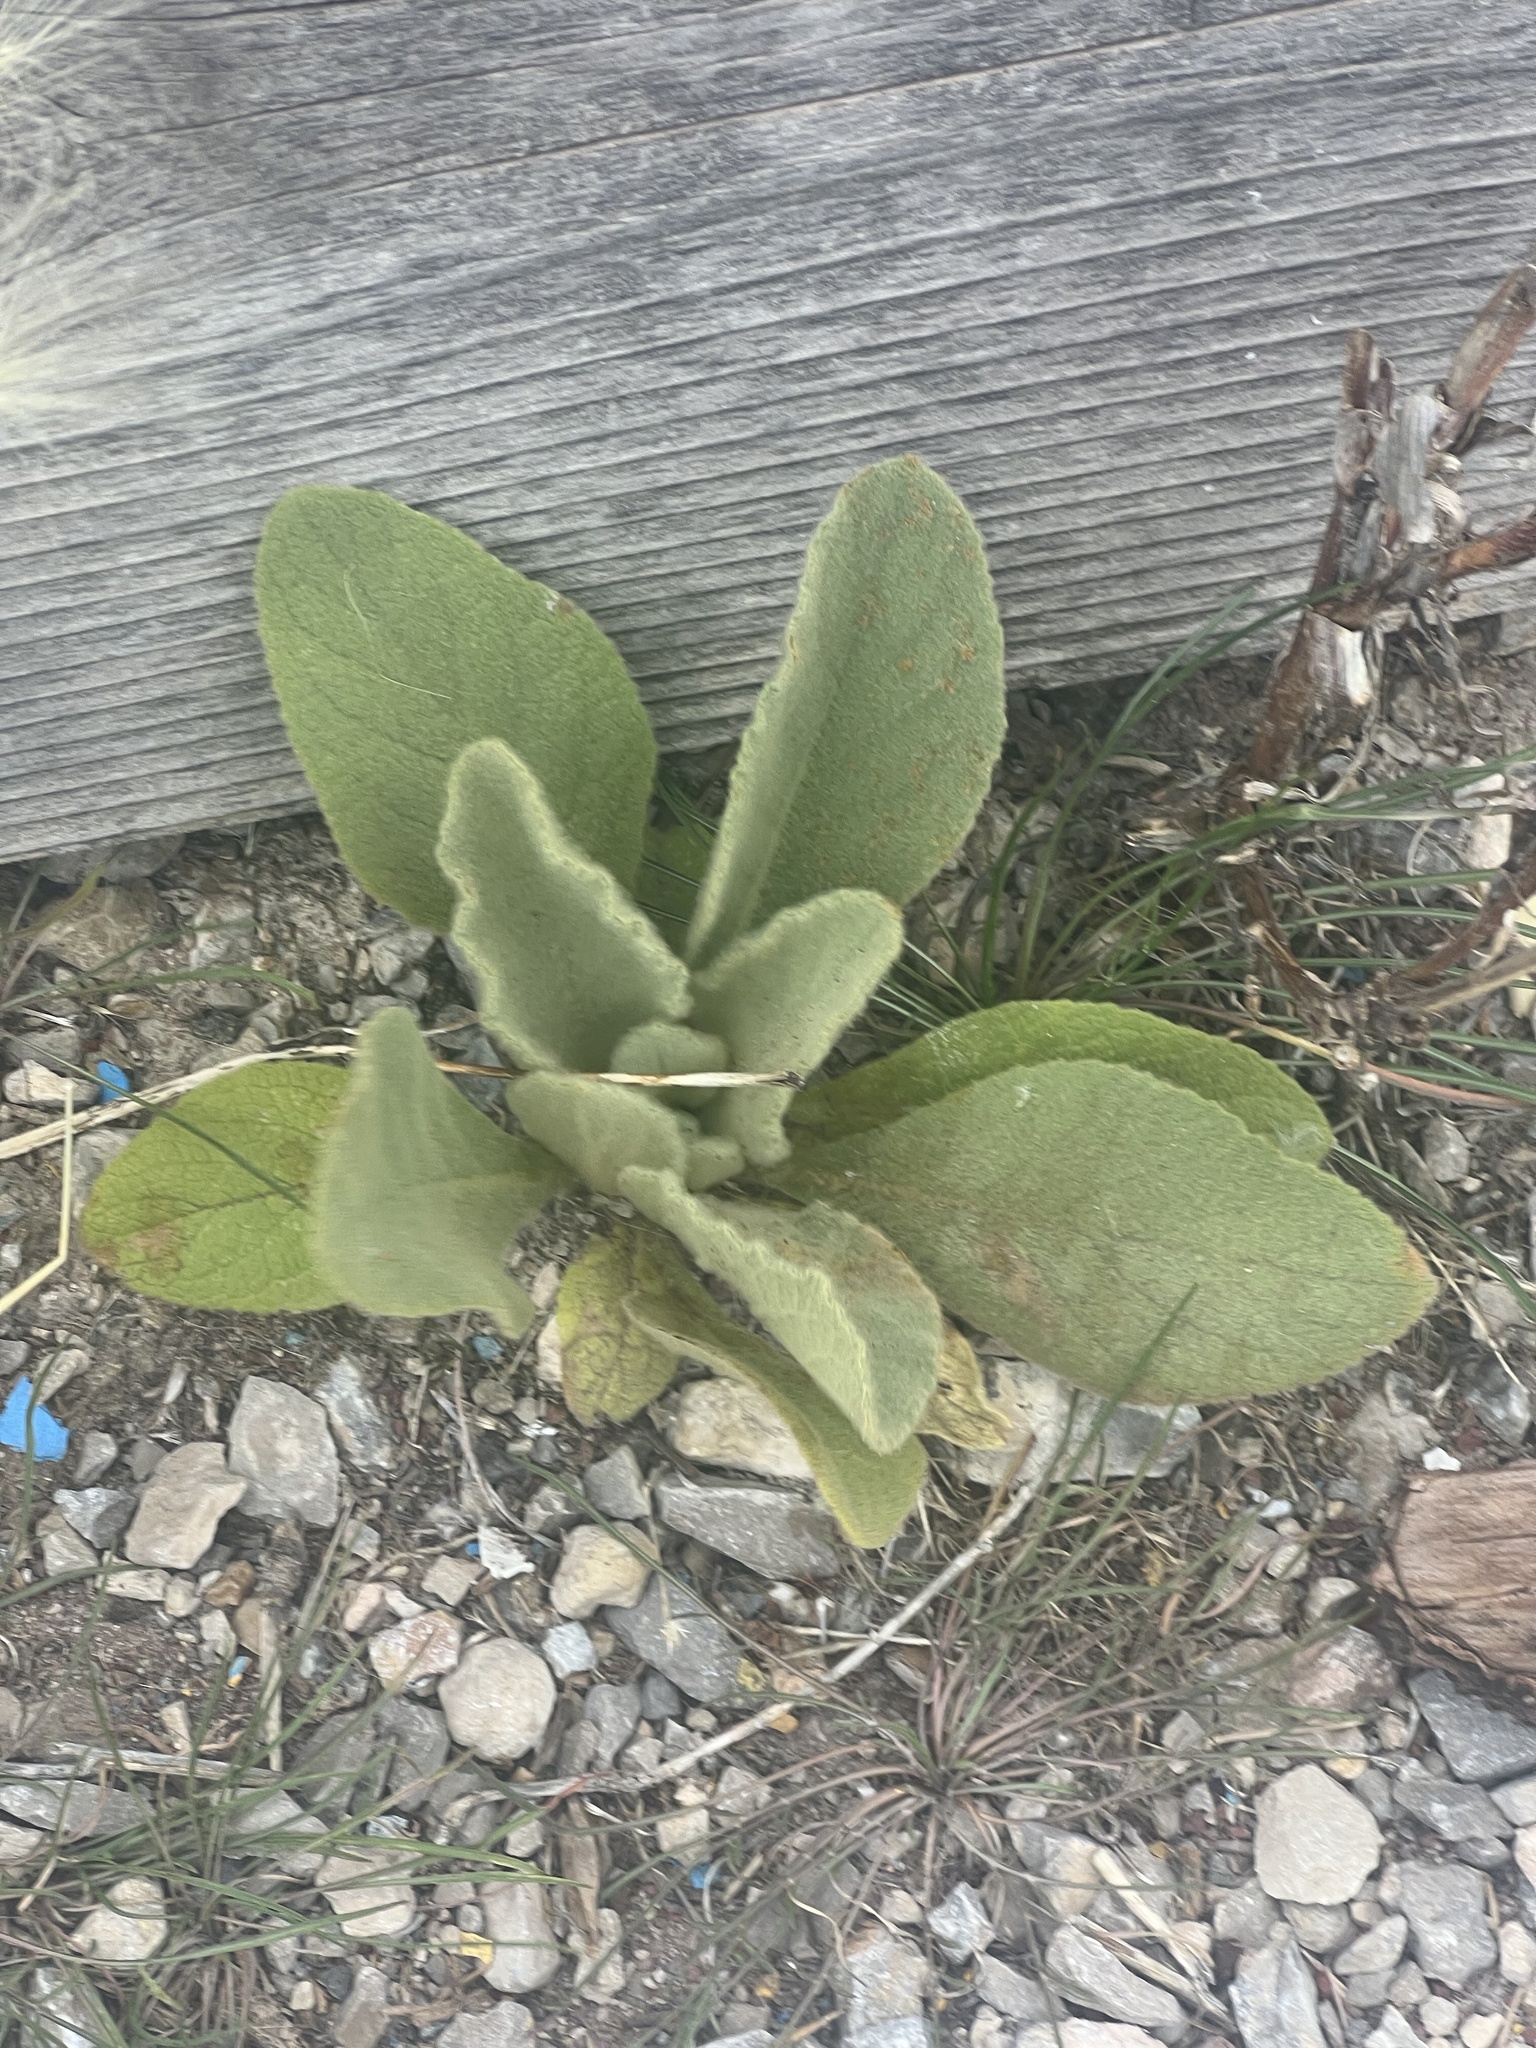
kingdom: Plantae
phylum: Tracheophyta
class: Magnoliopsida
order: Lamiales
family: Scrophulariaceae
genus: Verbascum
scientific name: Verbascum thapsus
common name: Common mullein
